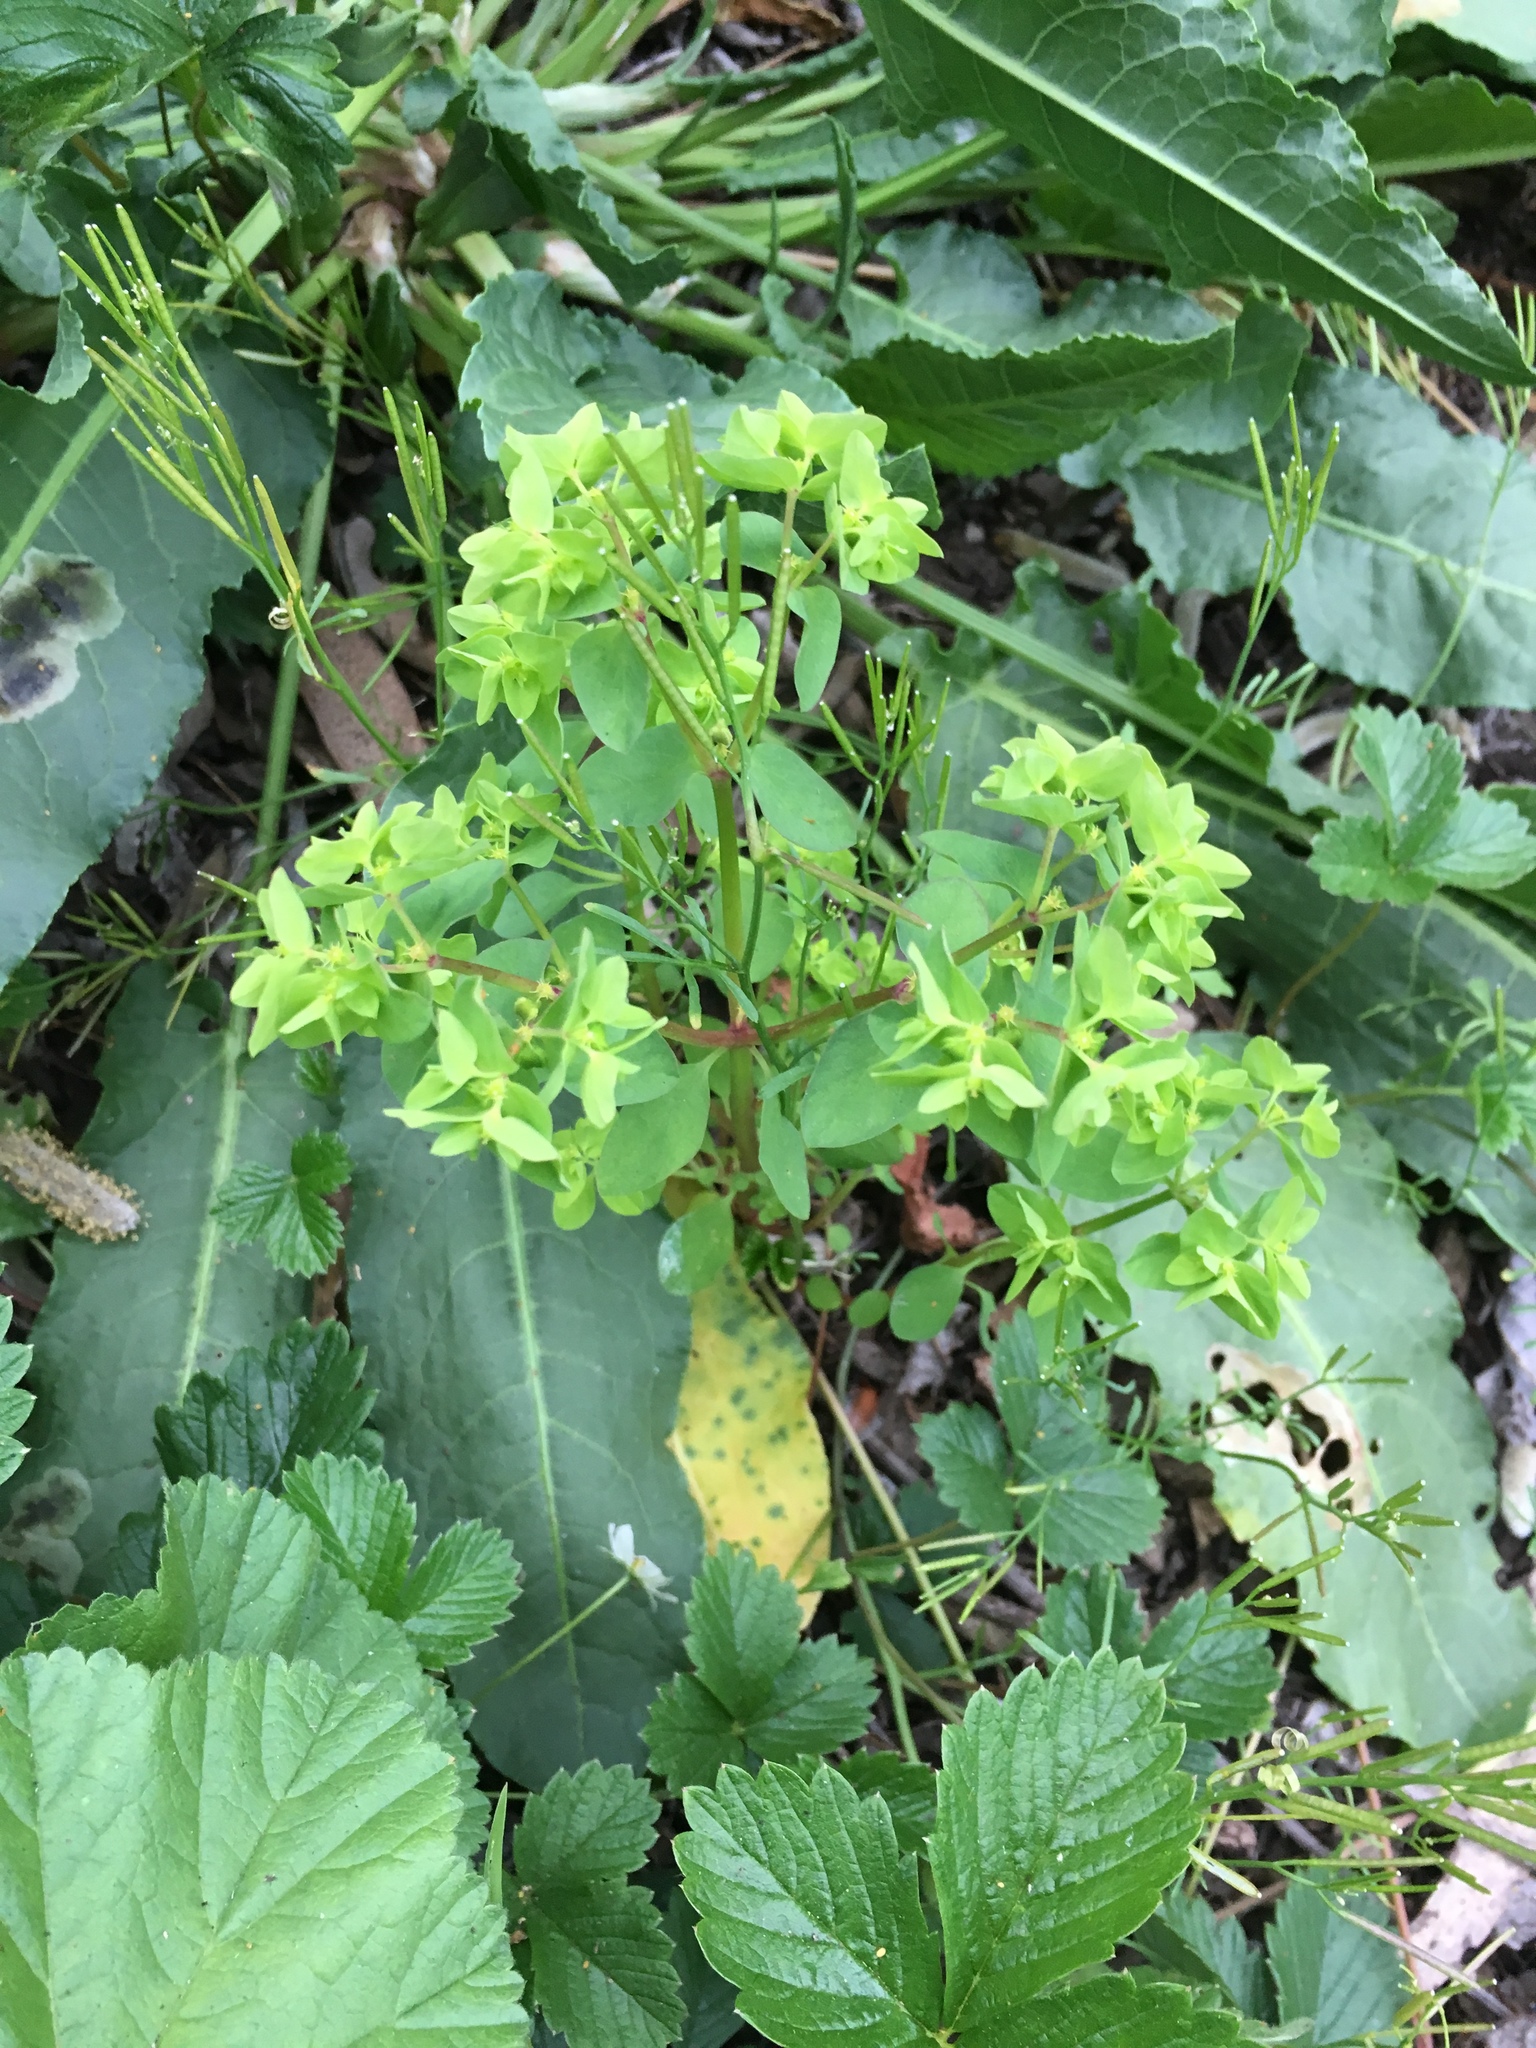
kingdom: Plantae
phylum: Tracheophyta
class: Magnoliopsida
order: Malpighiales
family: Euphorbiaceae
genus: Euphorbia
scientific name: Euphorbia peplus
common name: Petty spurge
